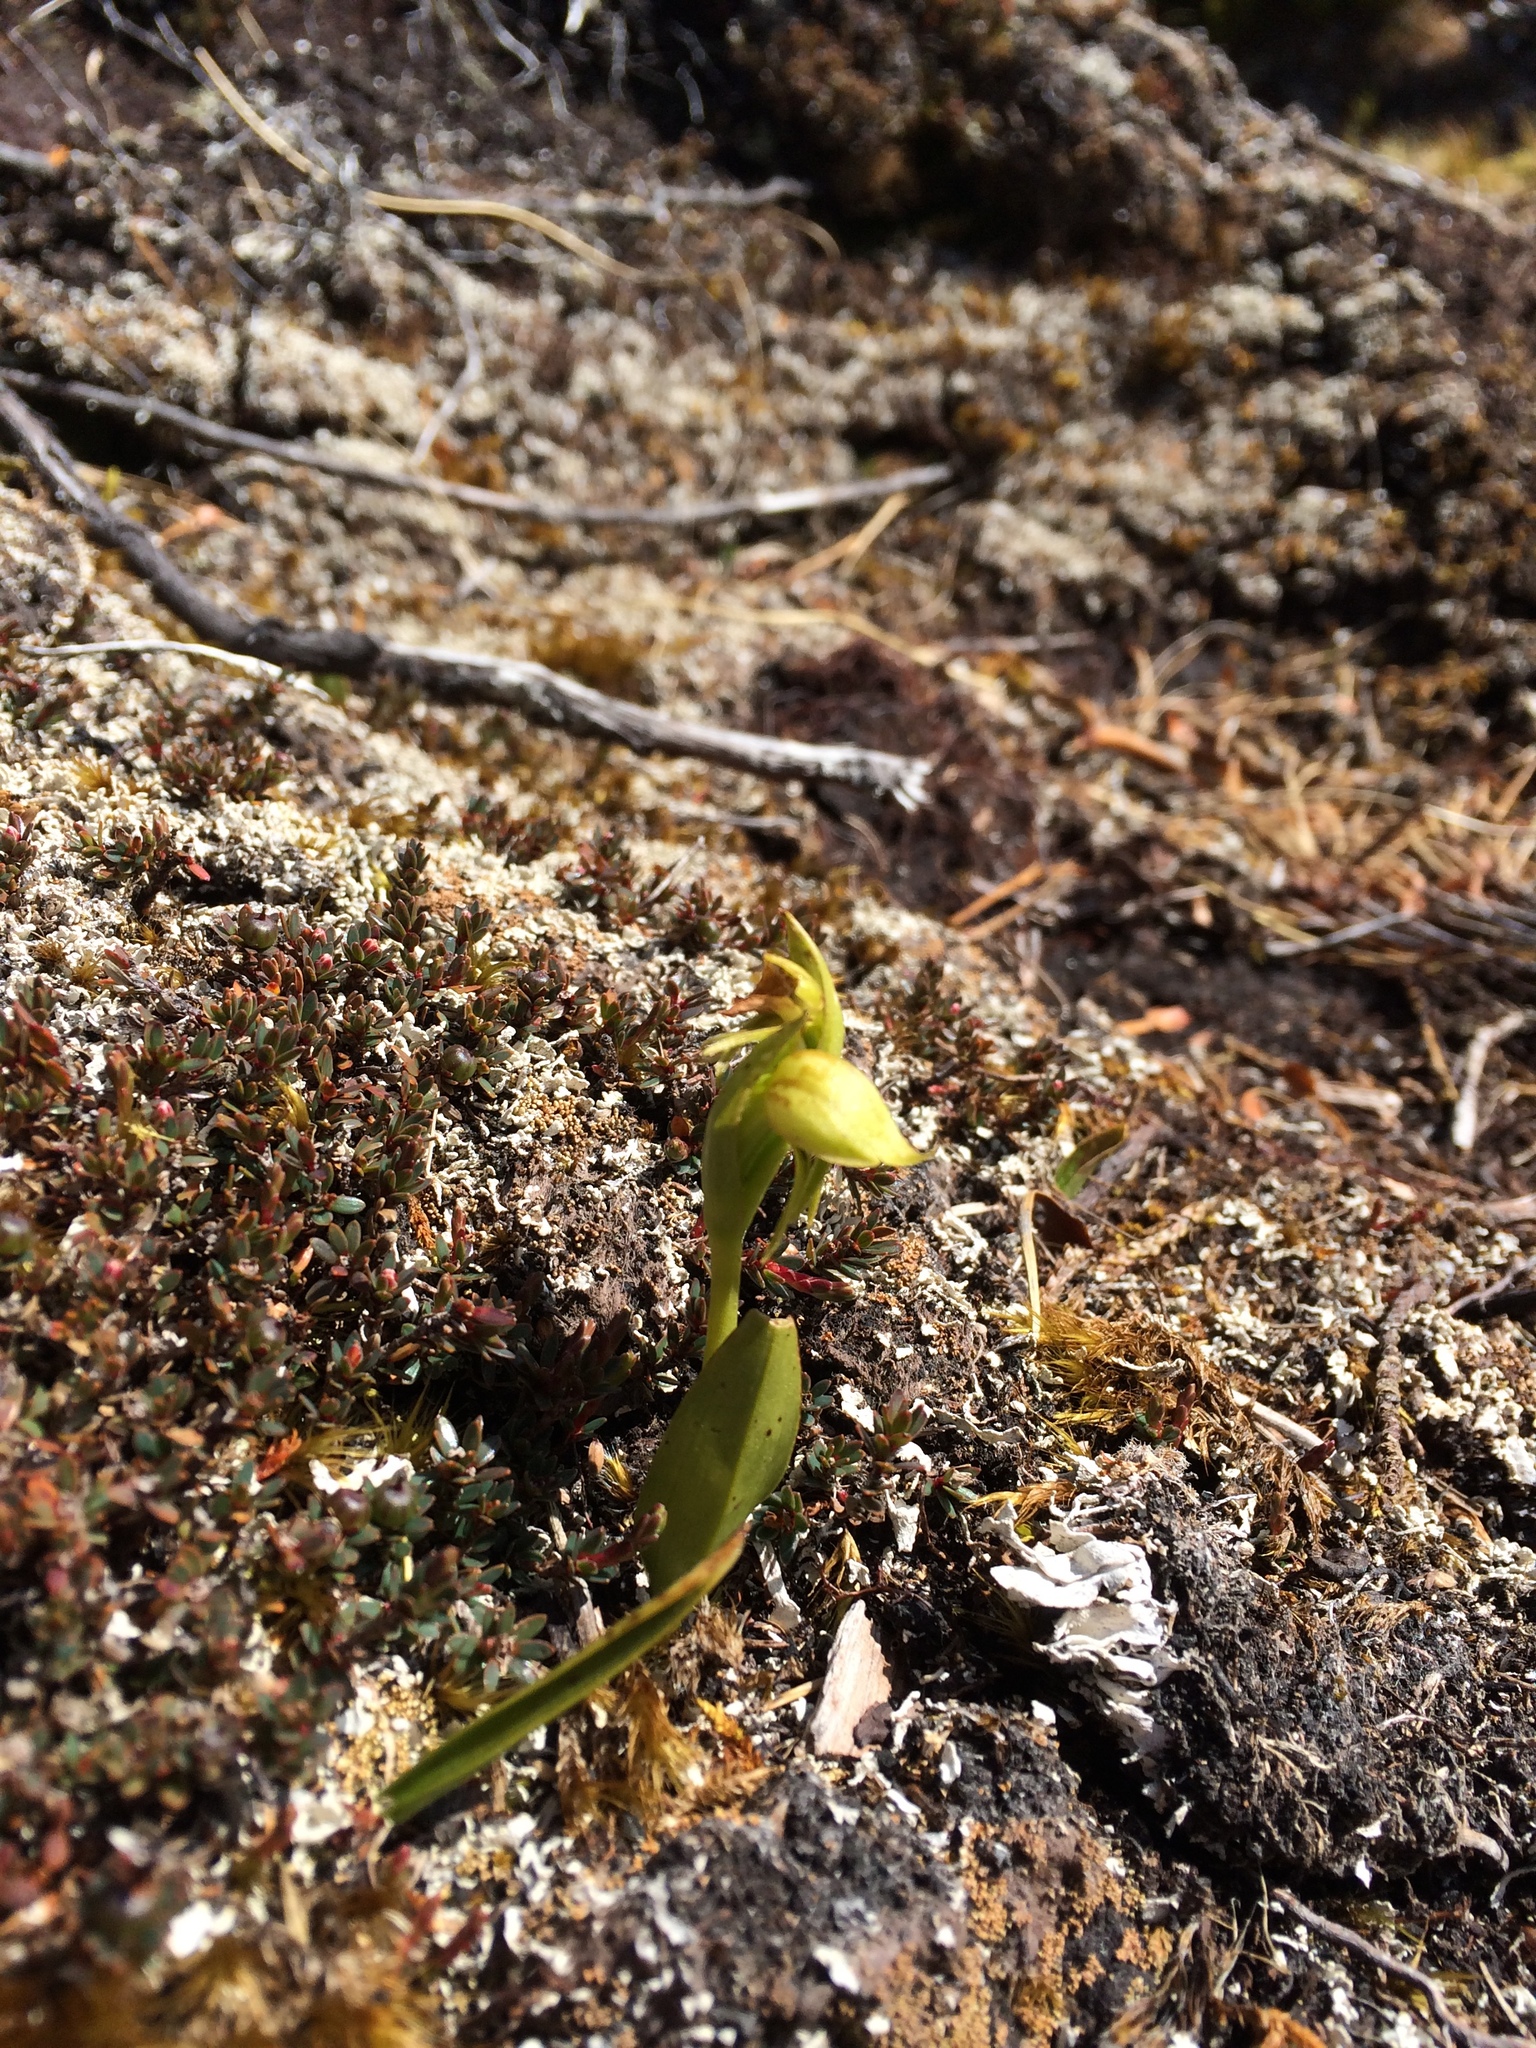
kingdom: Plantae
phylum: Tracheophyta
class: Liliopsida
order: Asparagales
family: Orchidaceae
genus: Waireia
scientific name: Waireia stenopetala
